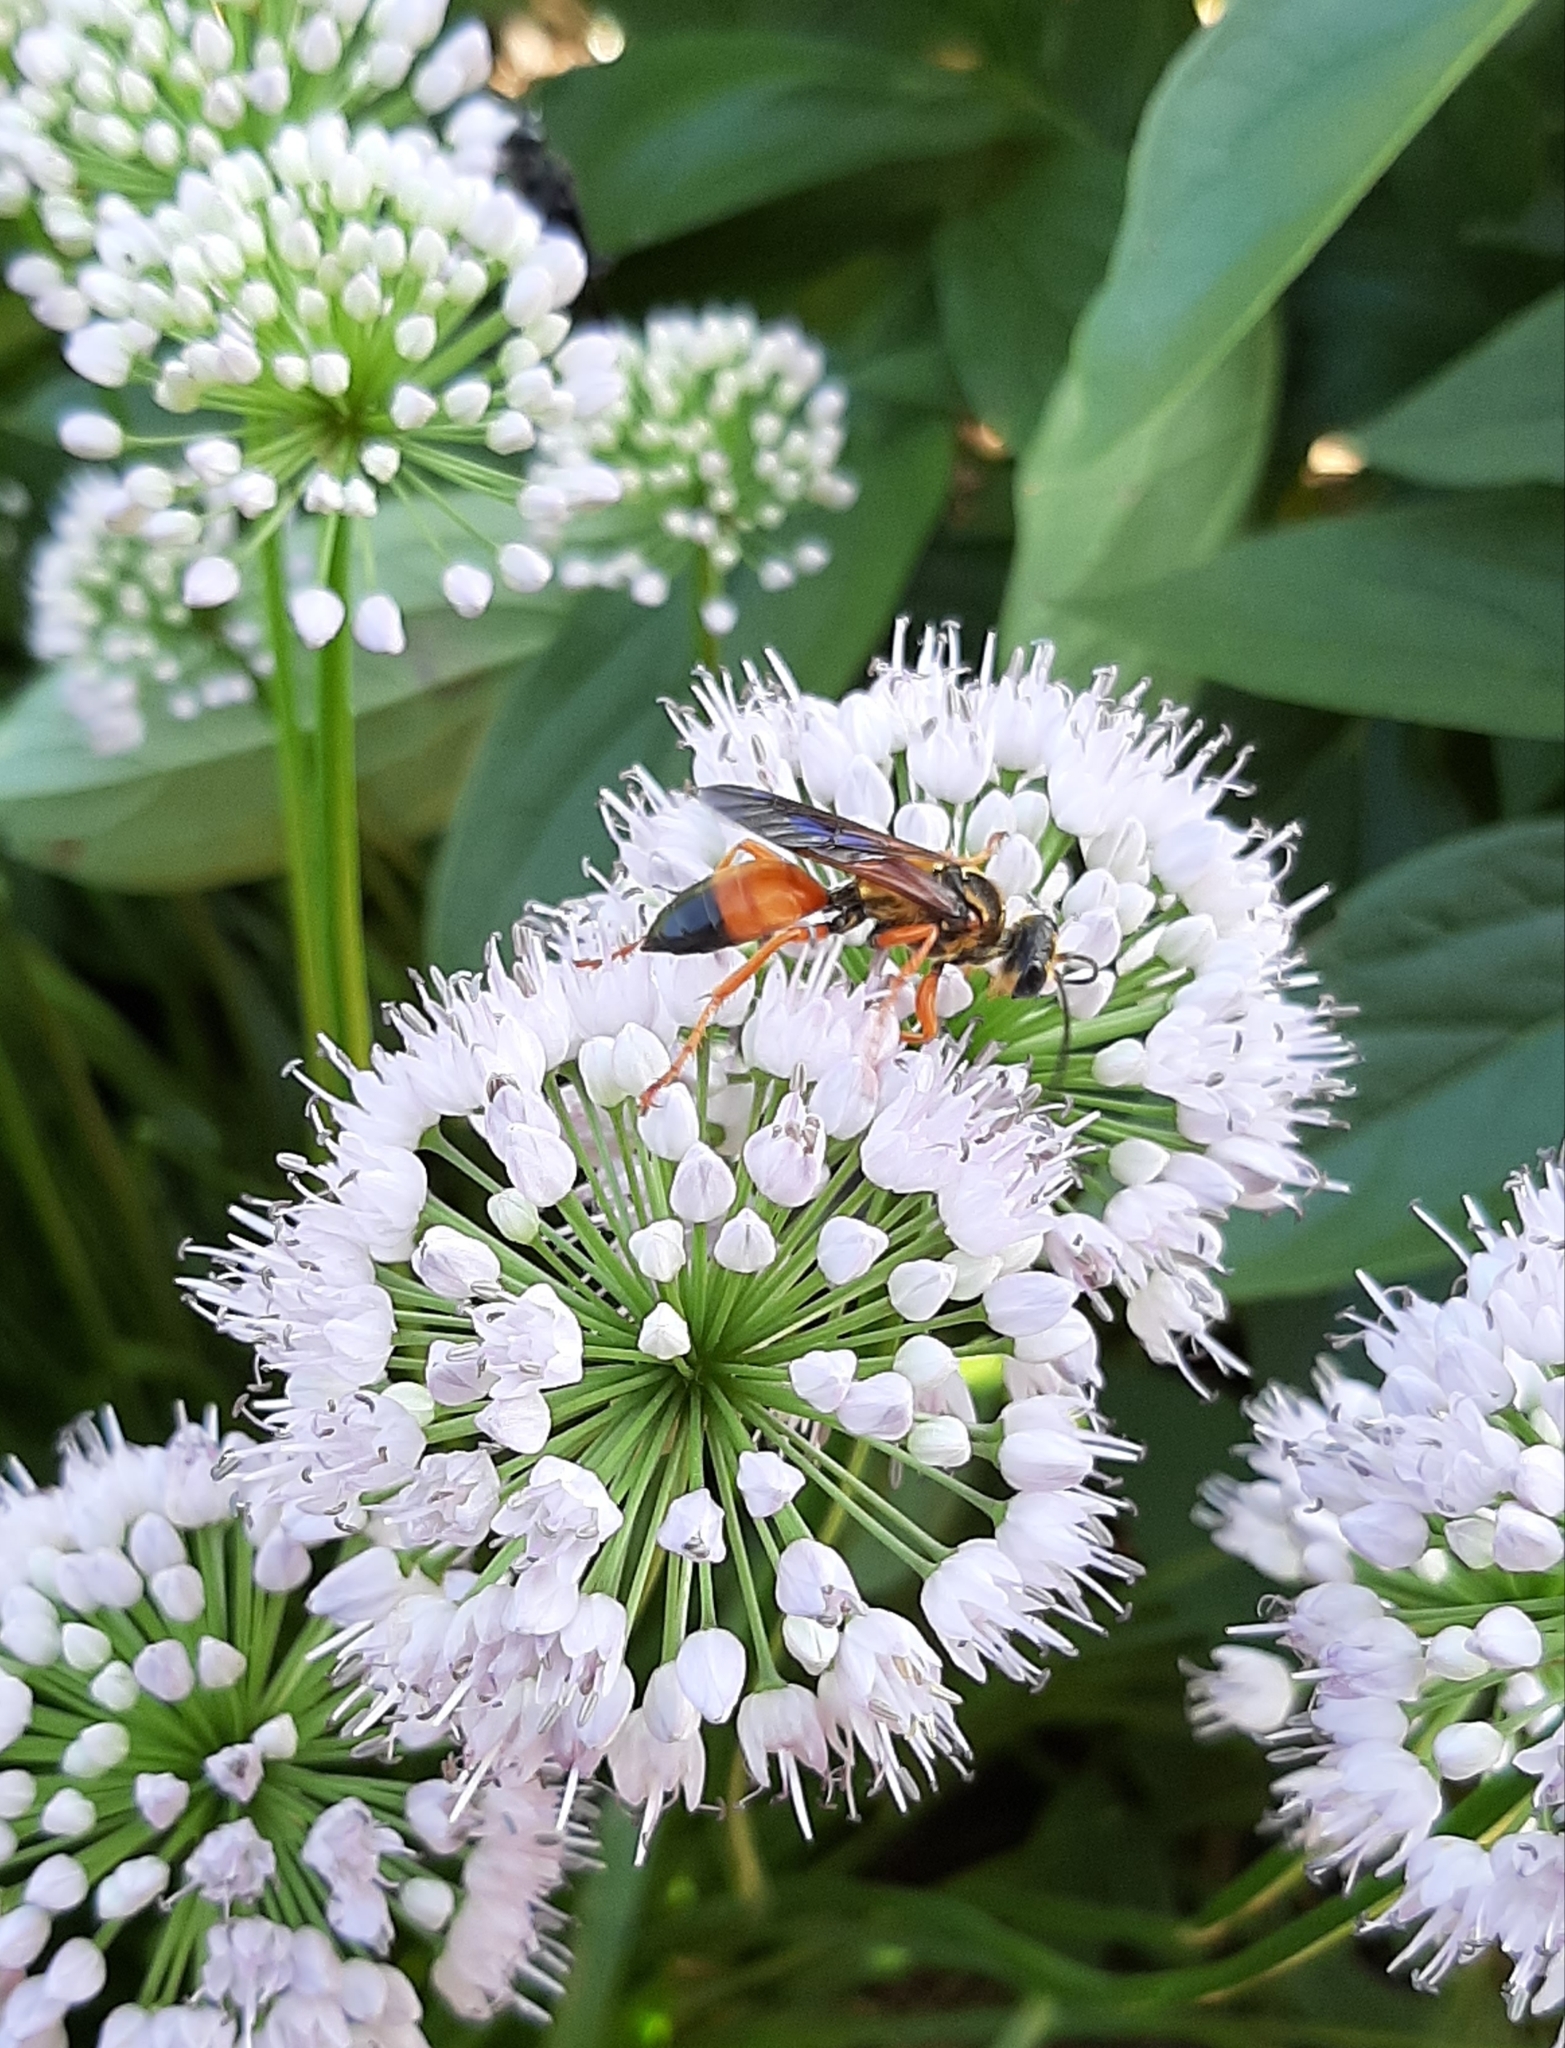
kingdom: Animalia
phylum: Arthropoda
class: Insecta
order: Hymenoptera
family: Sphecidae
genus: Sphex
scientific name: Sphex ichneumoneus
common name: Great golden digger wasp
